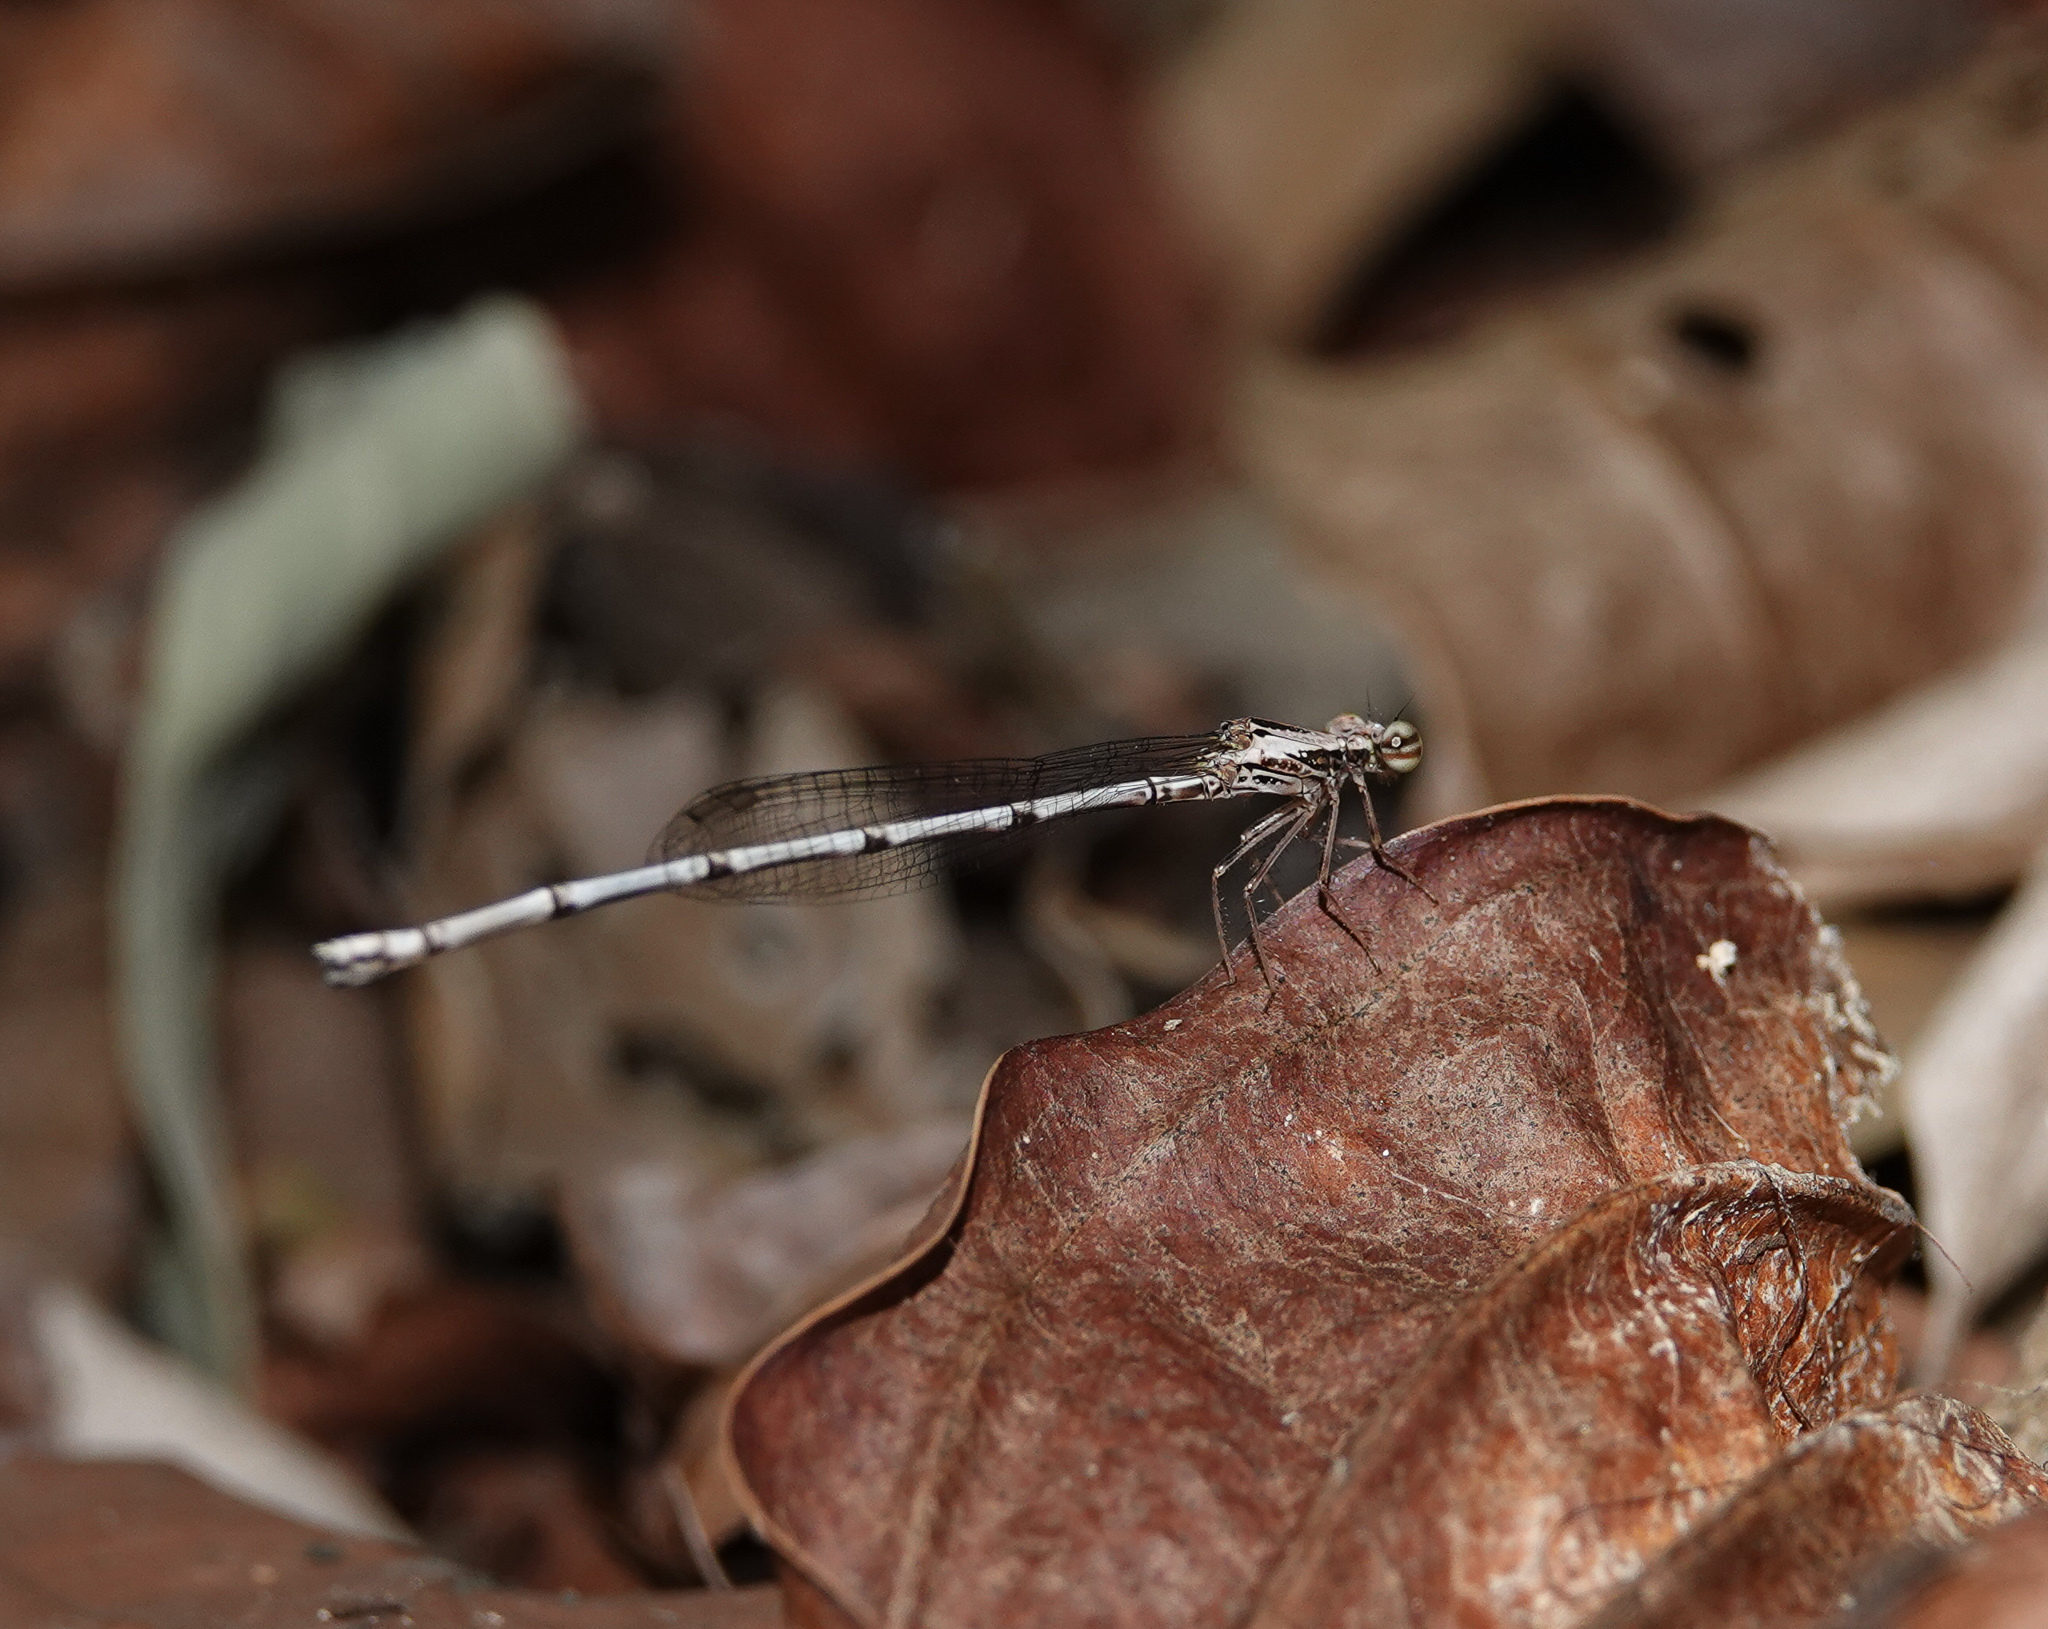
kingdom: Animalia
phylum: Arthropoda
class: Insecta
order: Odonata
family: Platycnemididae
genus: Copera
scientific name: Copera vittata
